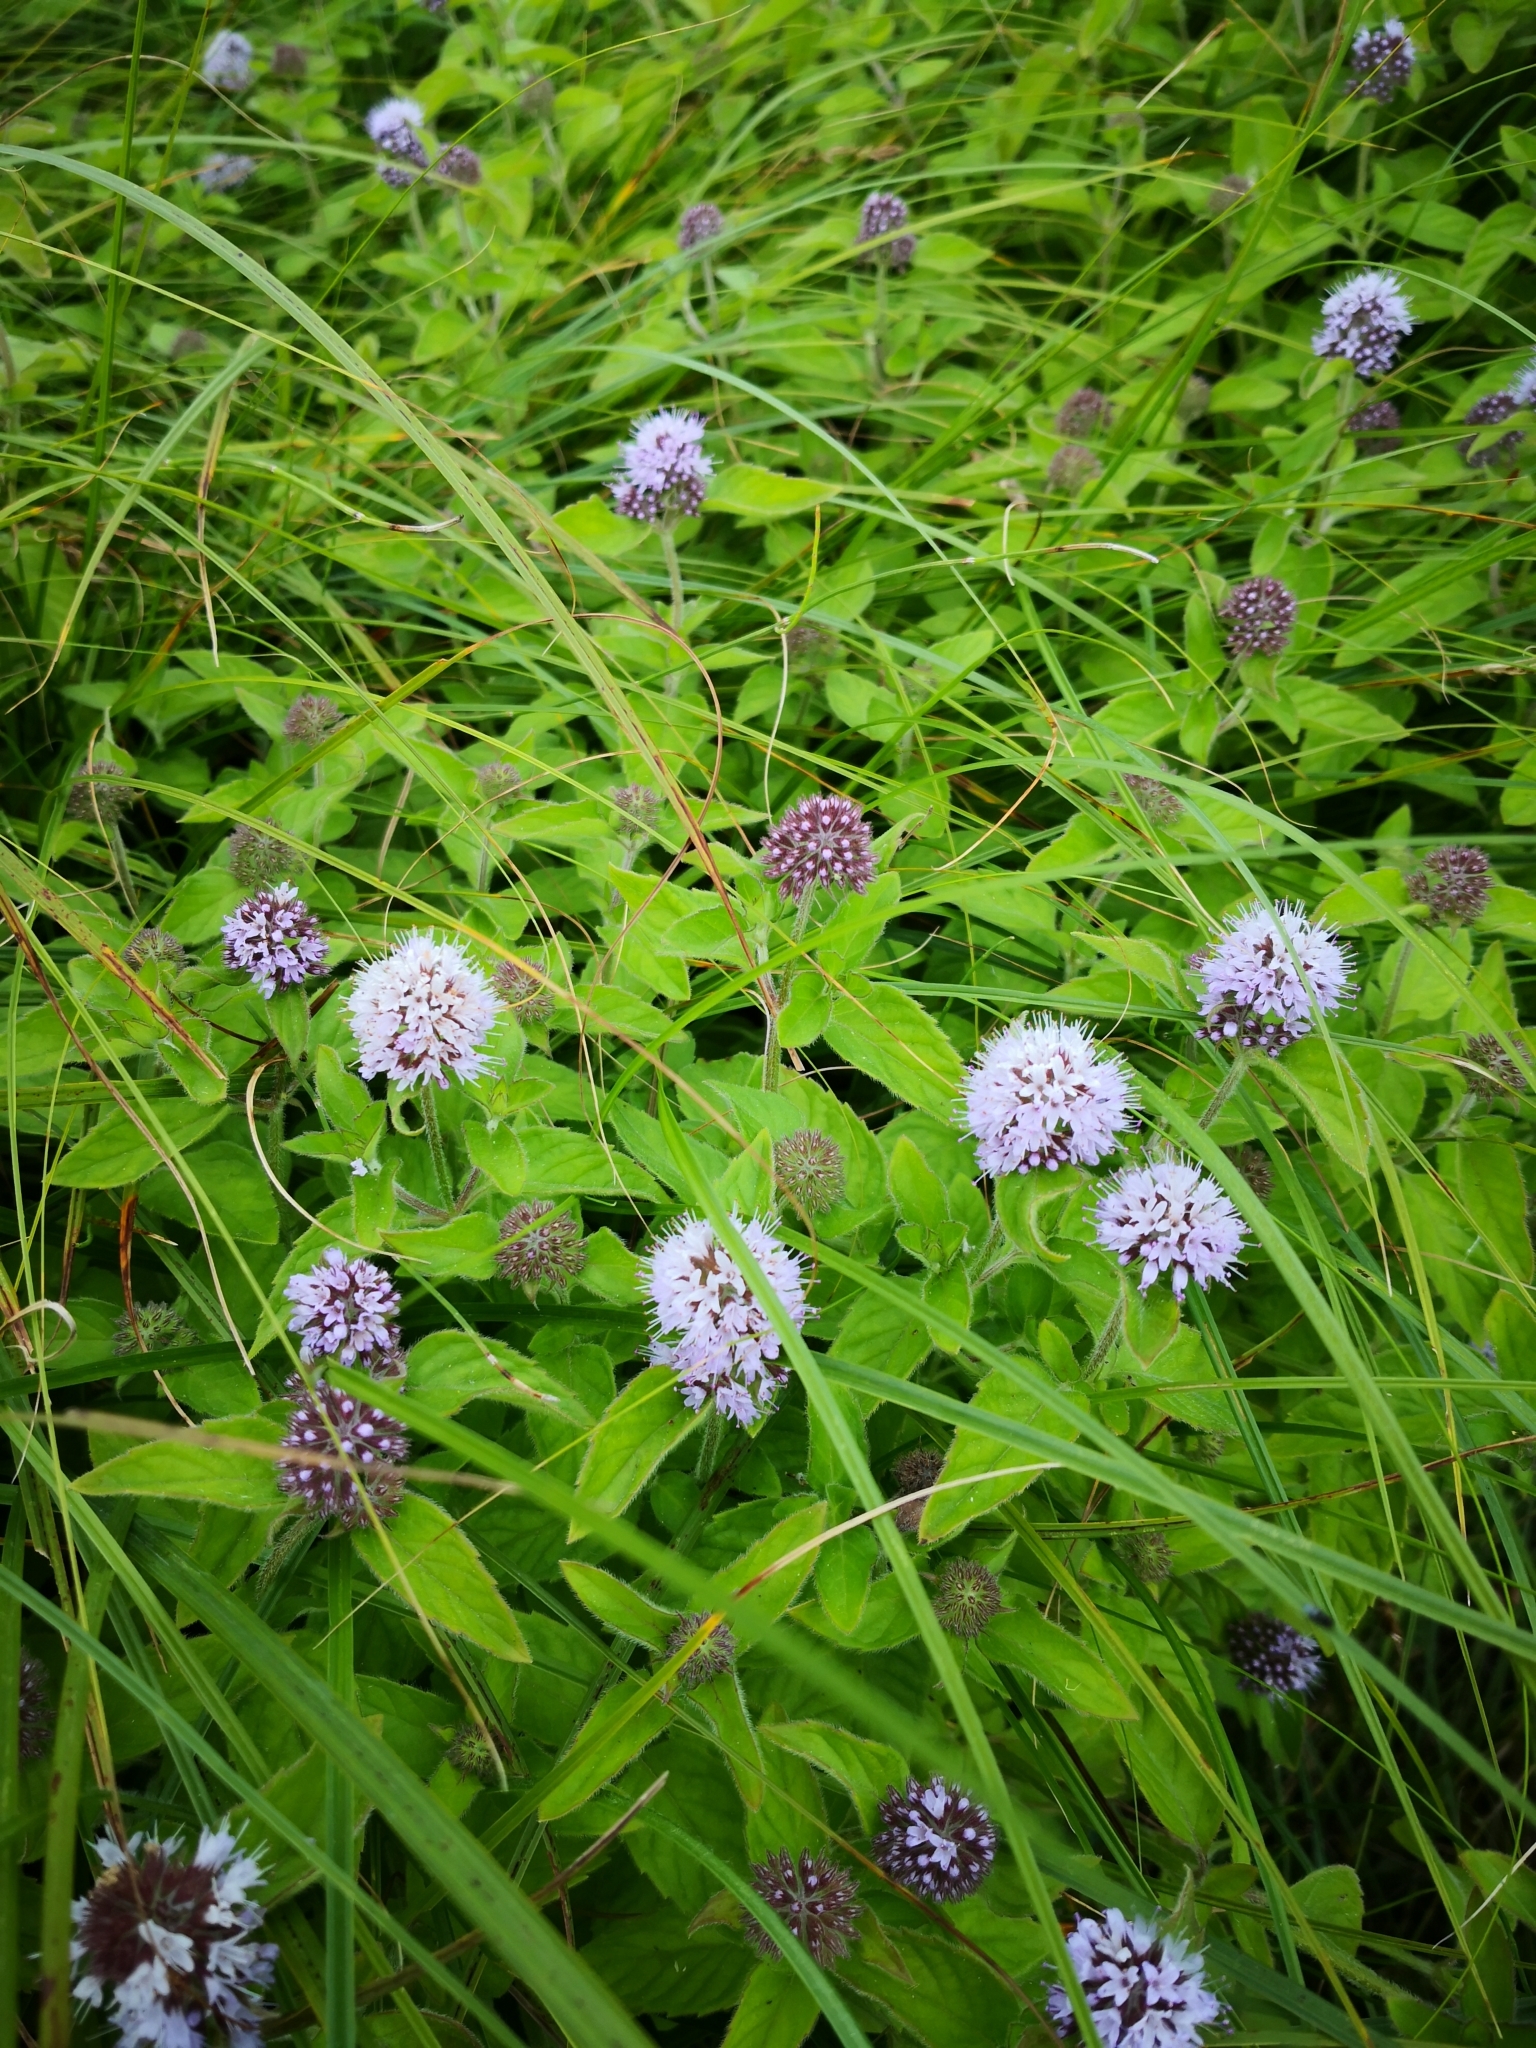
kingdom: Plantae
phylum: Tracheophyta
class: Magnoliopsida
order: Lamiales
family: Lamiaceae
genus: Mentha
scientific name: Mentha aquatica
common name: Water mint
